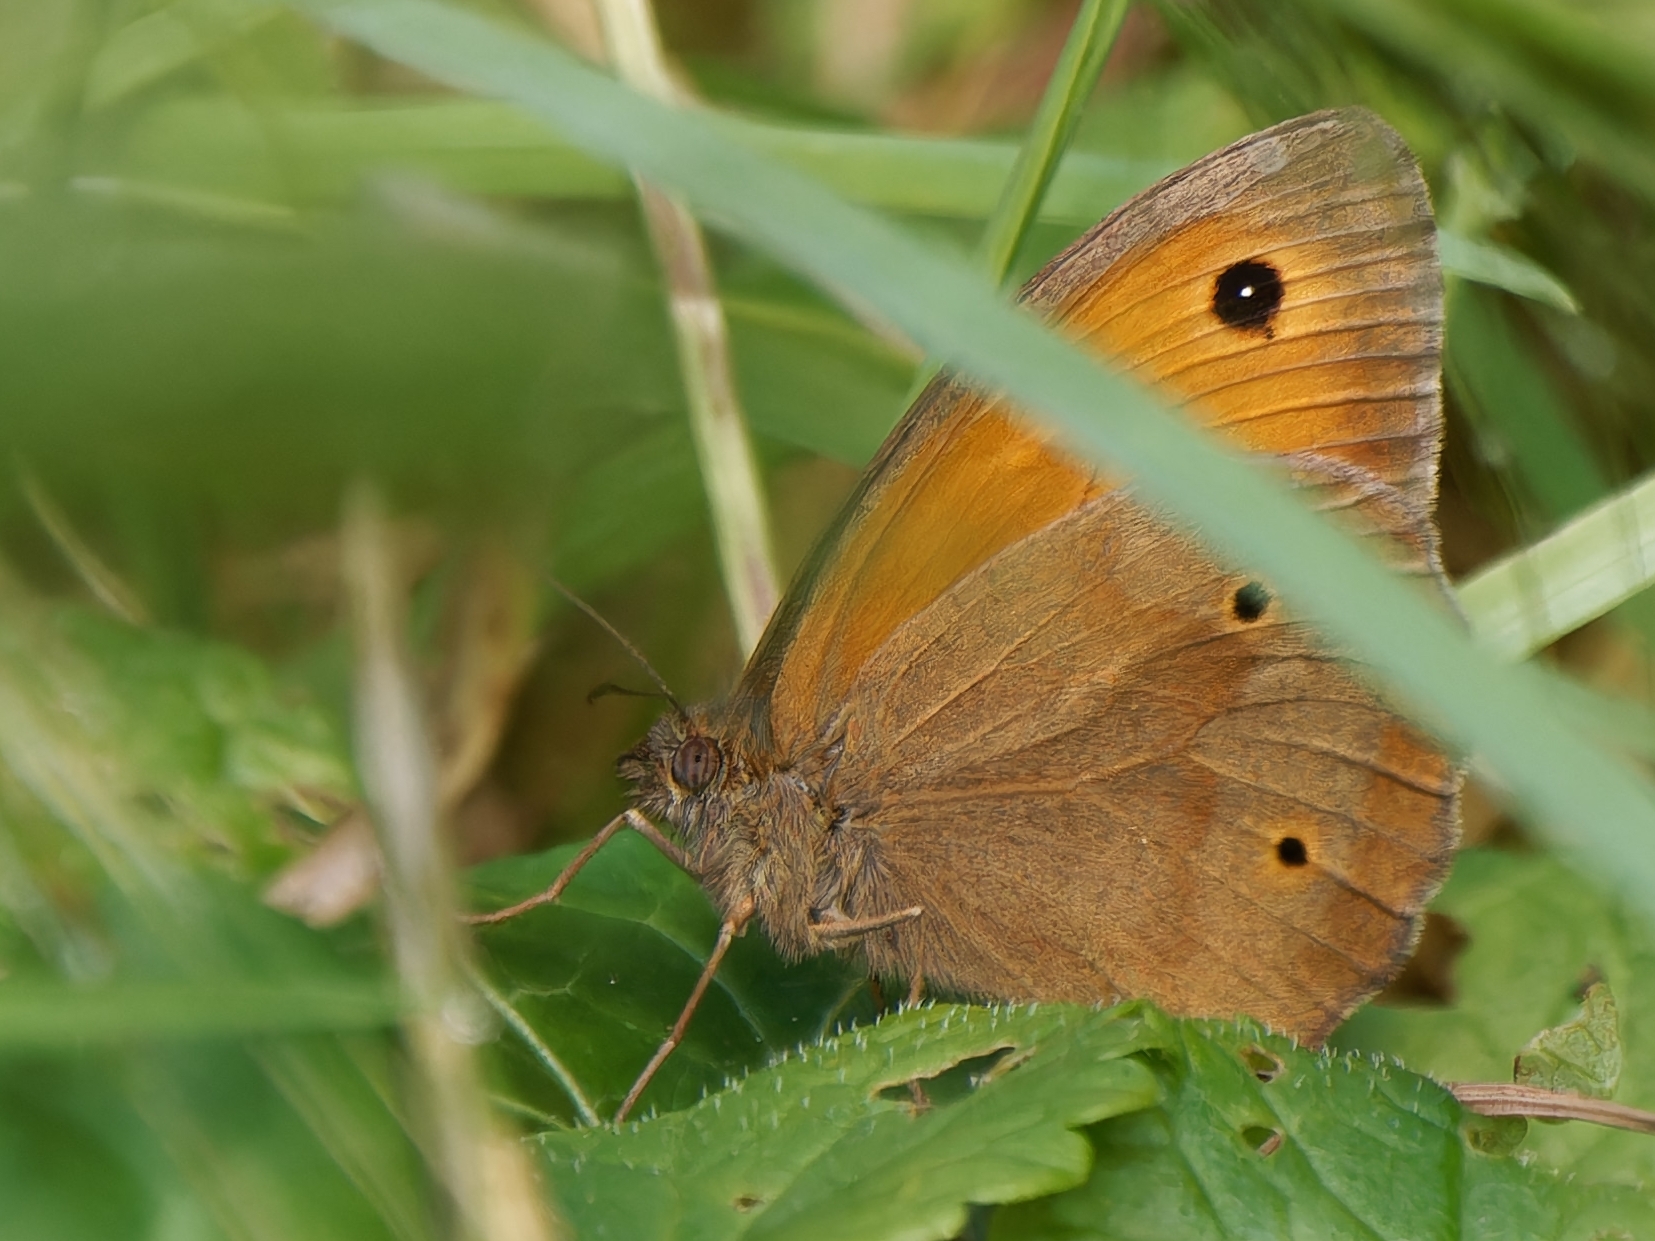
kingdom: Animalia
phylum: Arthropoda
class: Insecta
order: Lepidoptera
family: Nymphalidae
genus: Maniola
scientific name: Maniola jurtina
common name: Meadow brown
